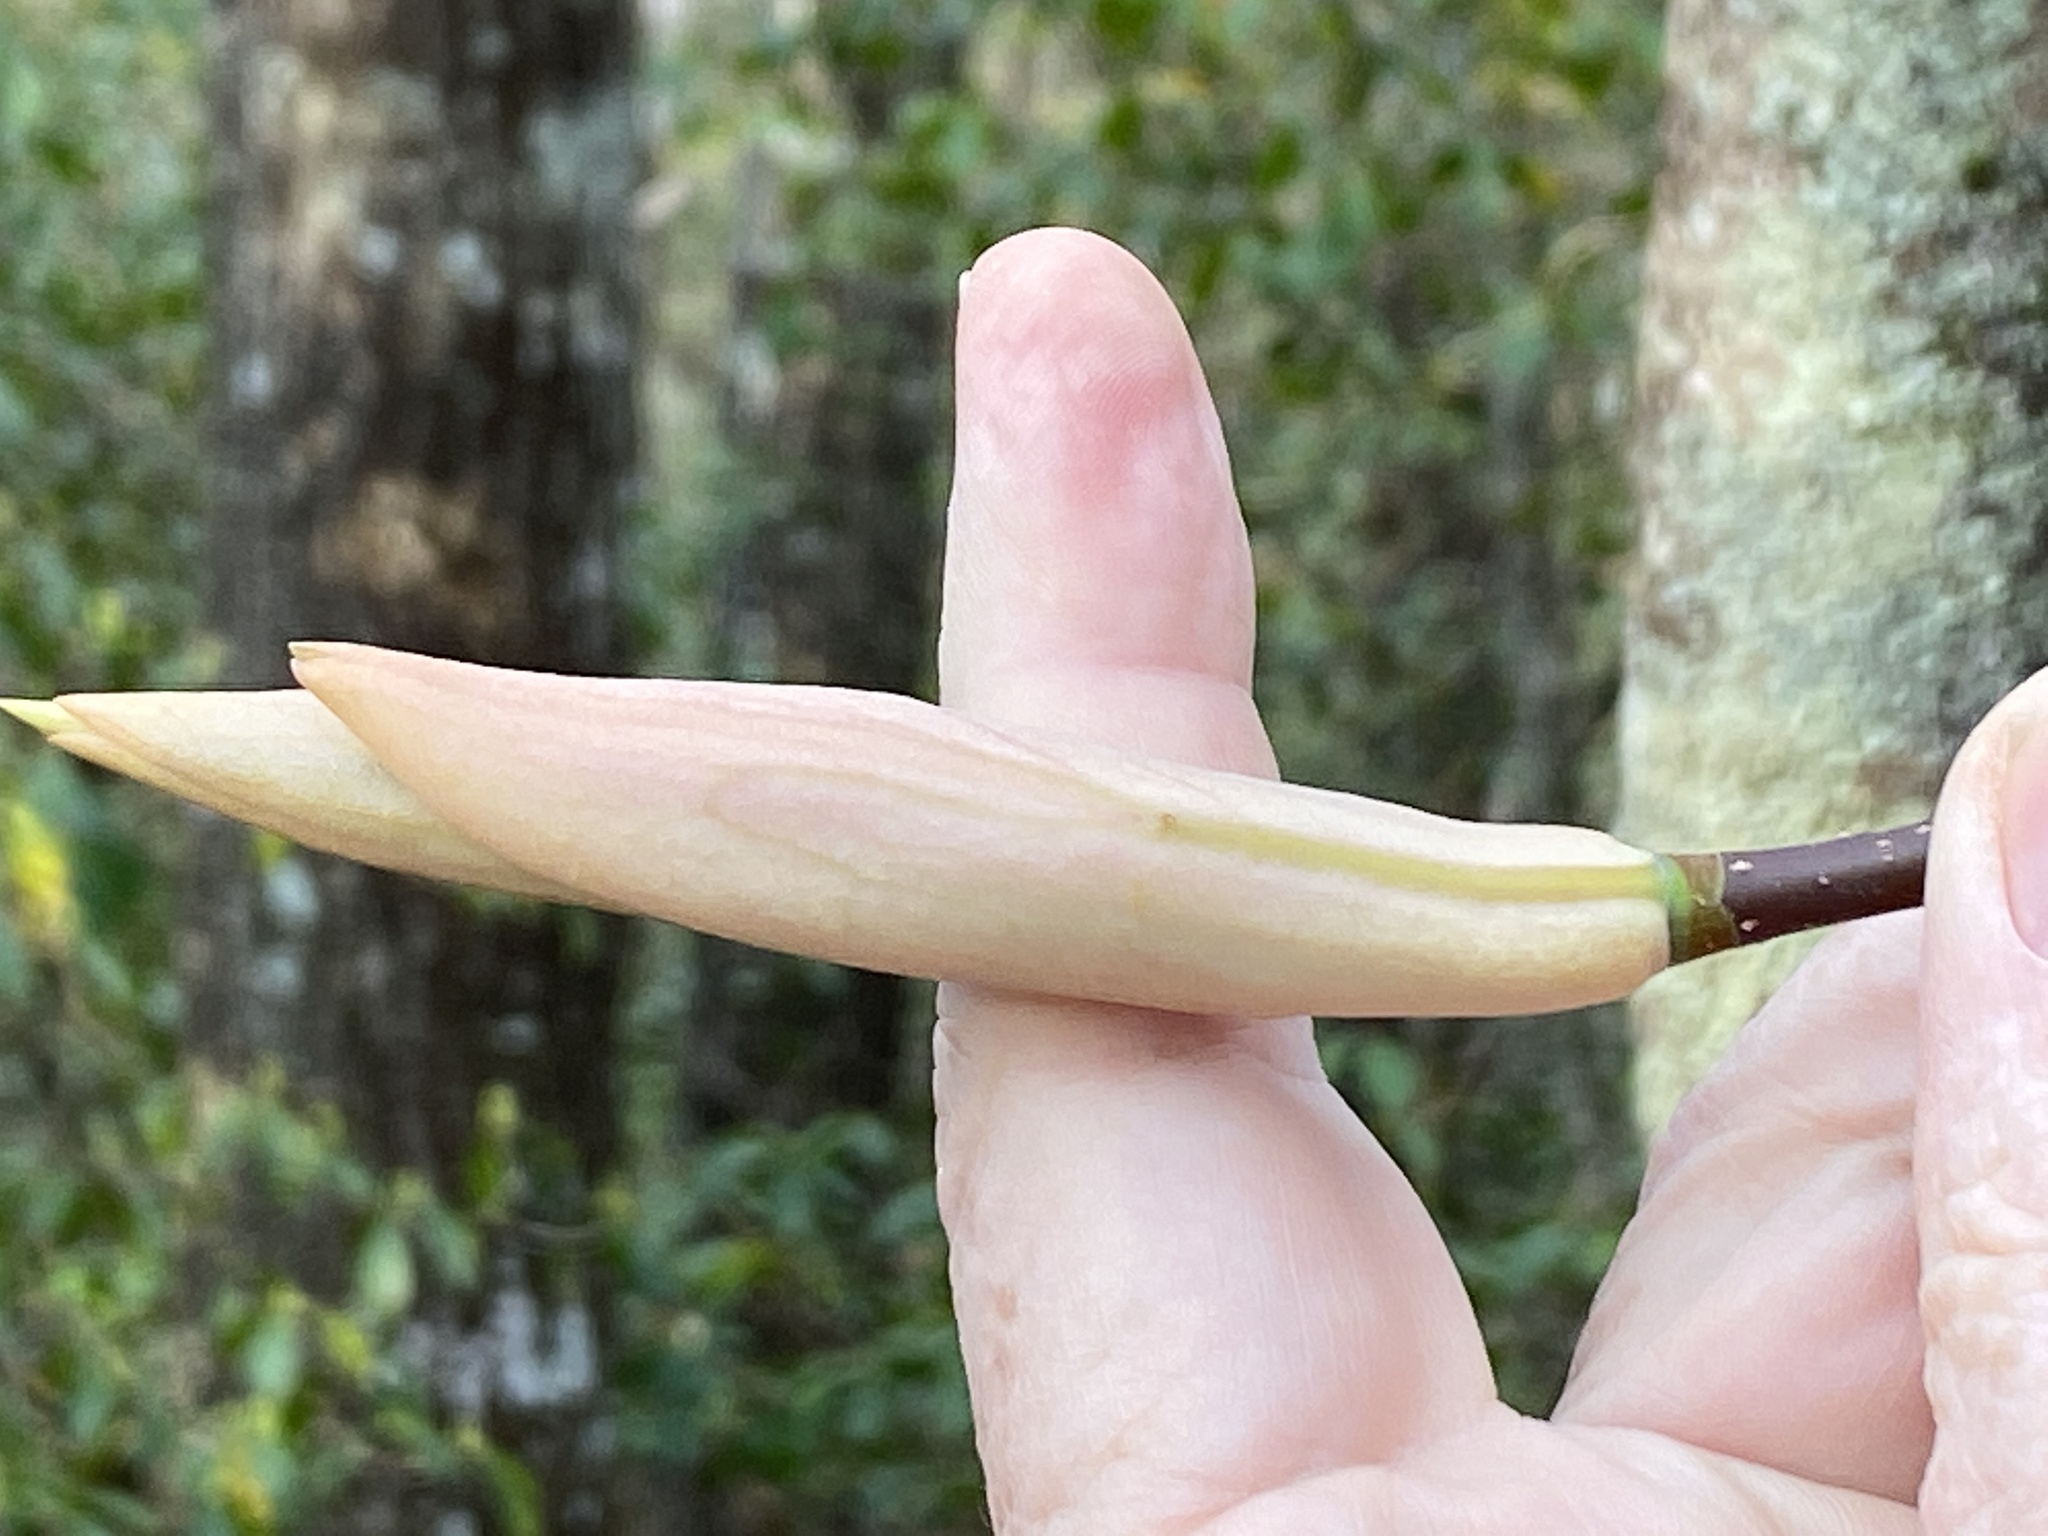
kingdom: Plantae
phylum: Tracheophyta
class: Magnoliopsida
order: Magnoliales
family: Magnoliaceae
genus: Magnolia
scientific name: Magnolia fraseri
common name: Fraser's magnolia
